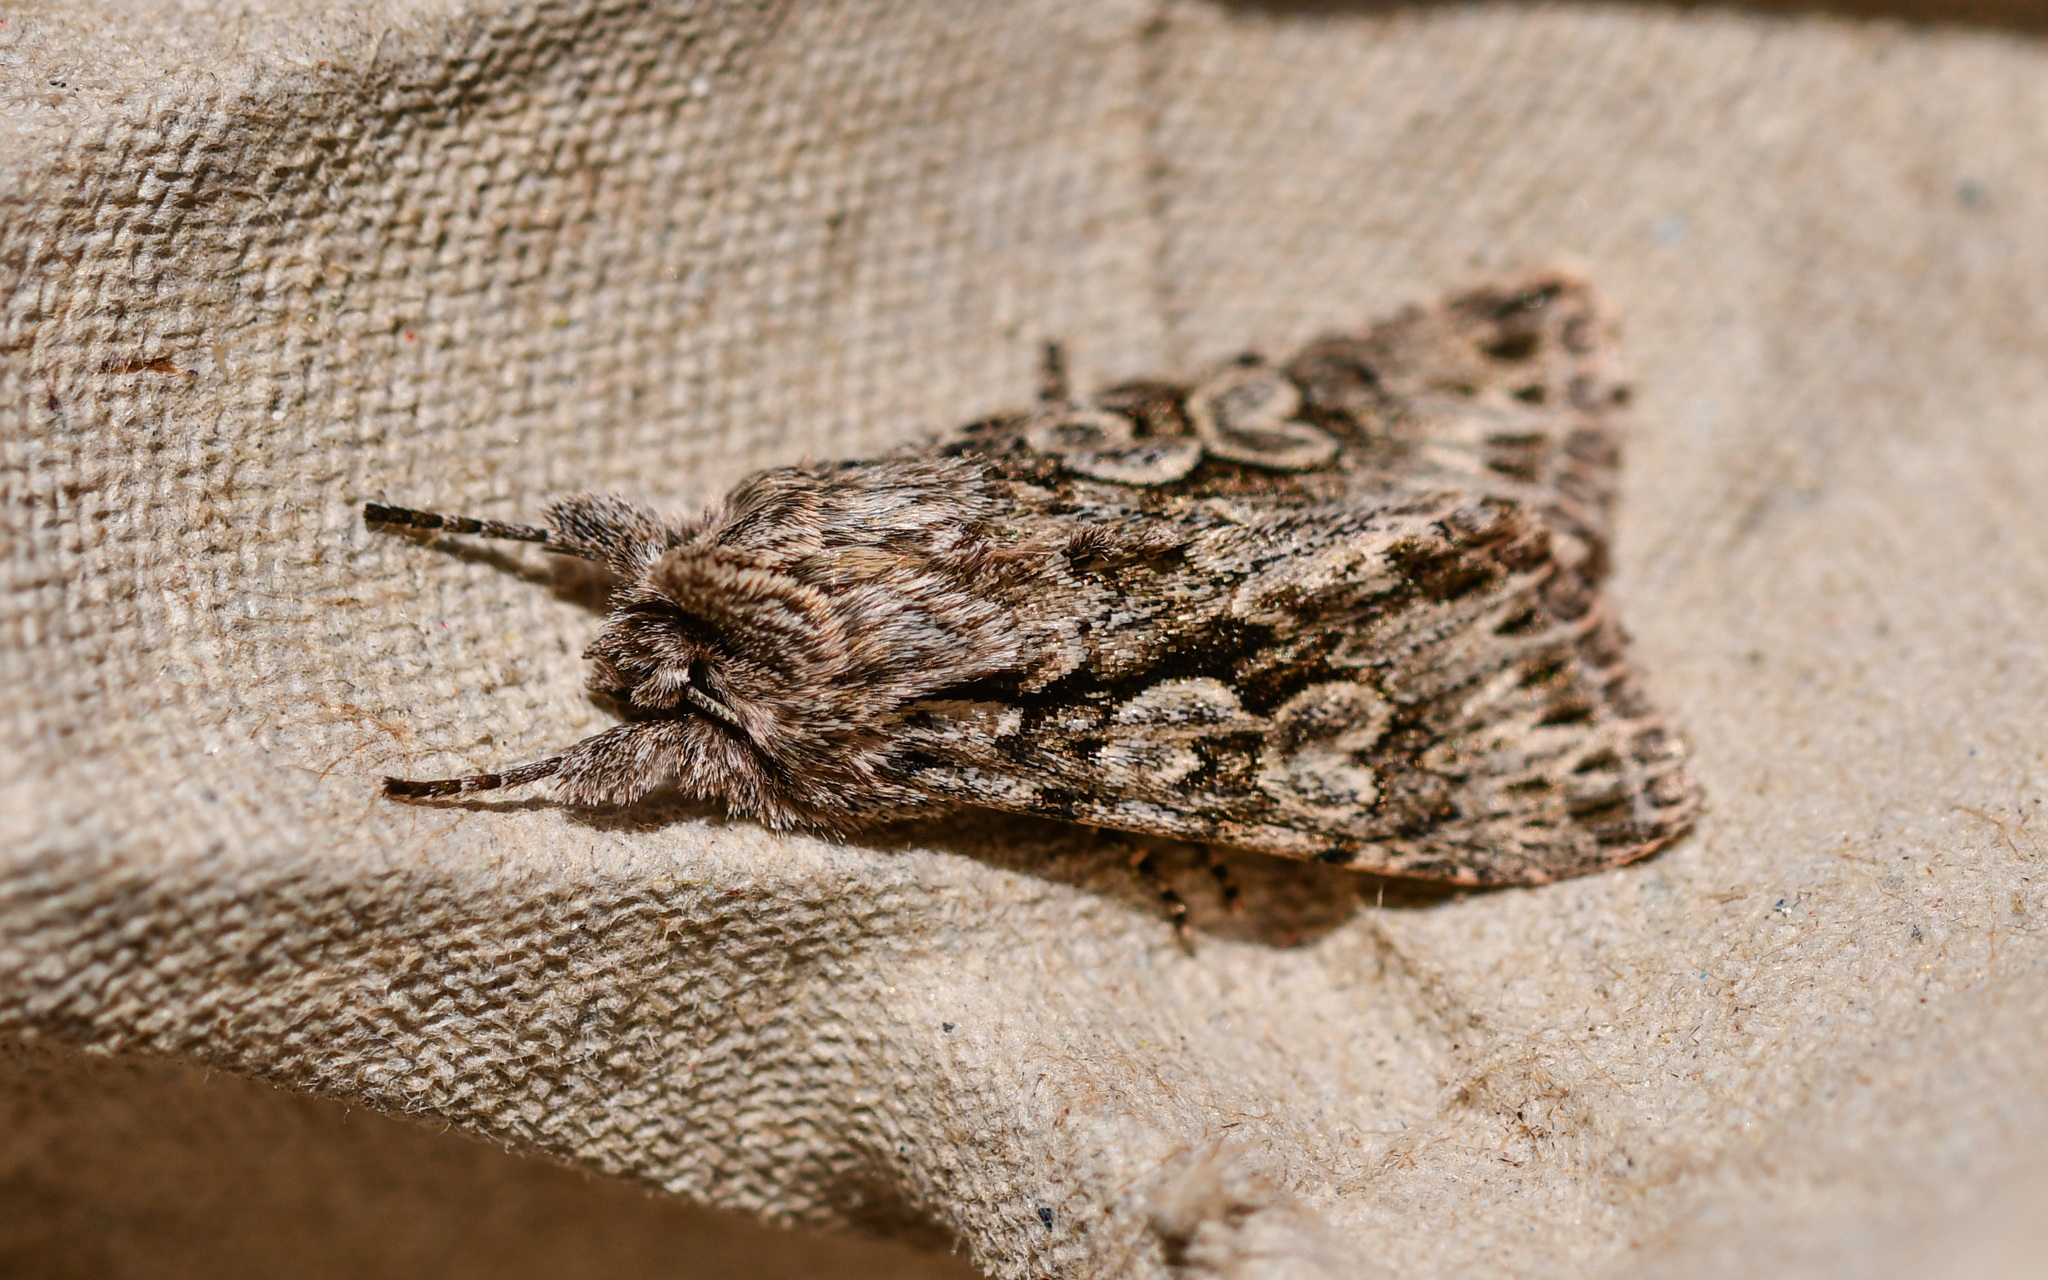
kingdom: Animalia
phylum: Arthropoda
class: Insecta
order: Lepidoptera
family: Noctuidae
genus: Xylocampa
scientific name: Xylocampa areola
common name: Early grey
